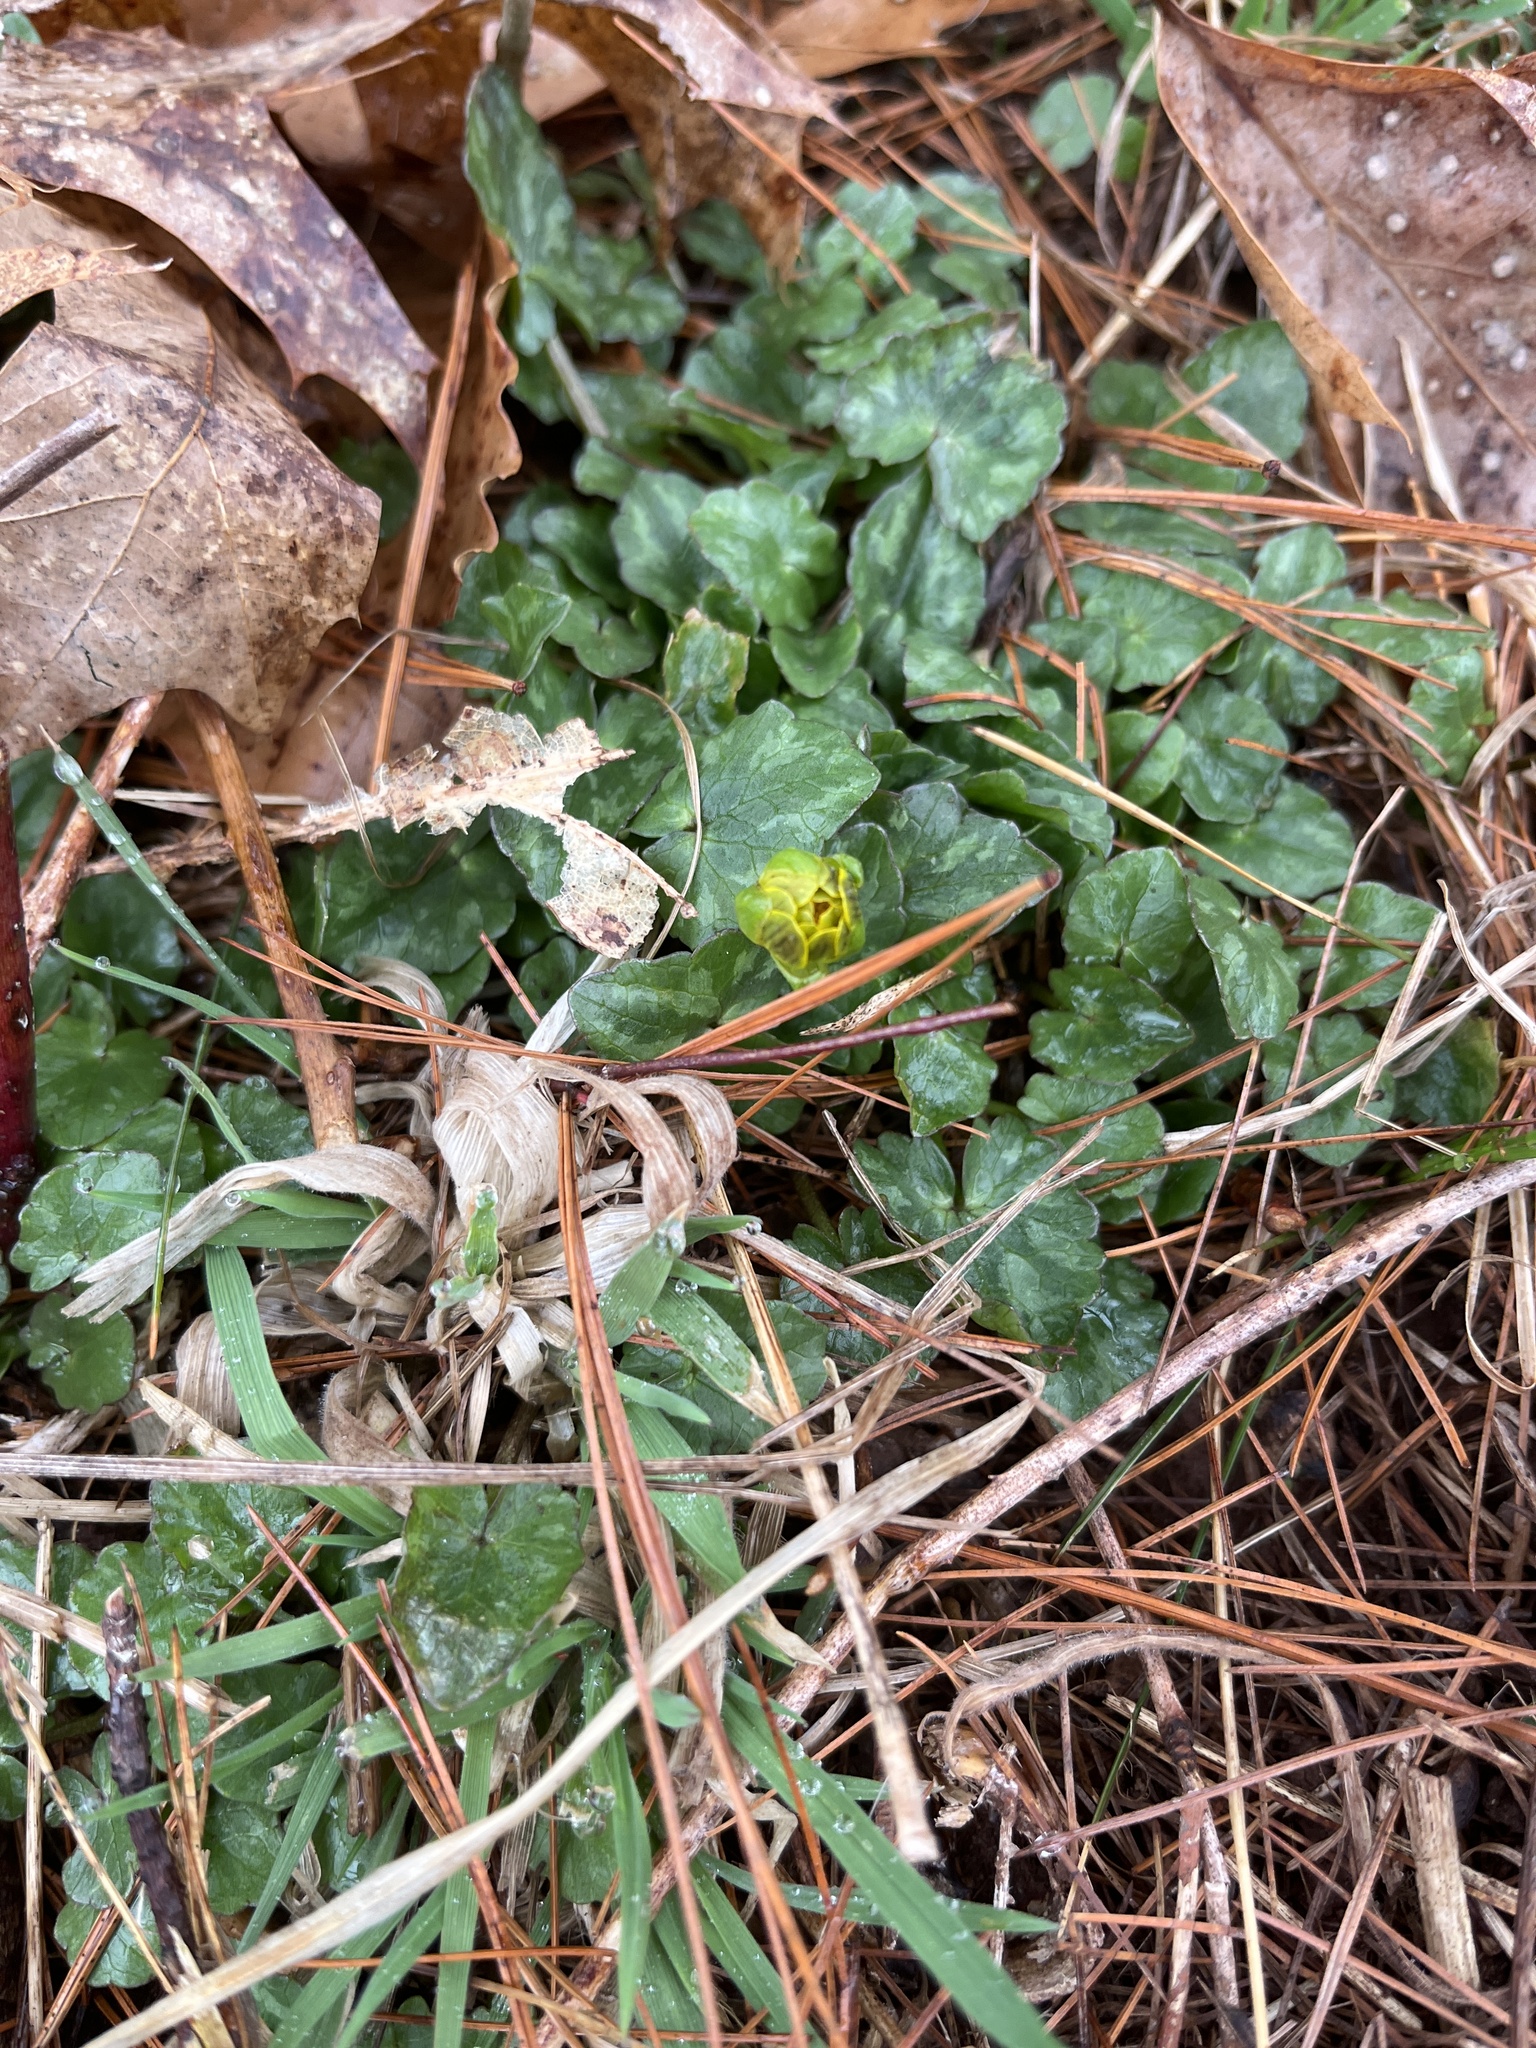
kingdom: Plantae
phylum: Tracheophyta
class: Magnoliopsida
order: Ranunculales
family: Ranunculaceae
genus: Ficaria
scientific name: Ficaria verna
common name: Lesser celandine
